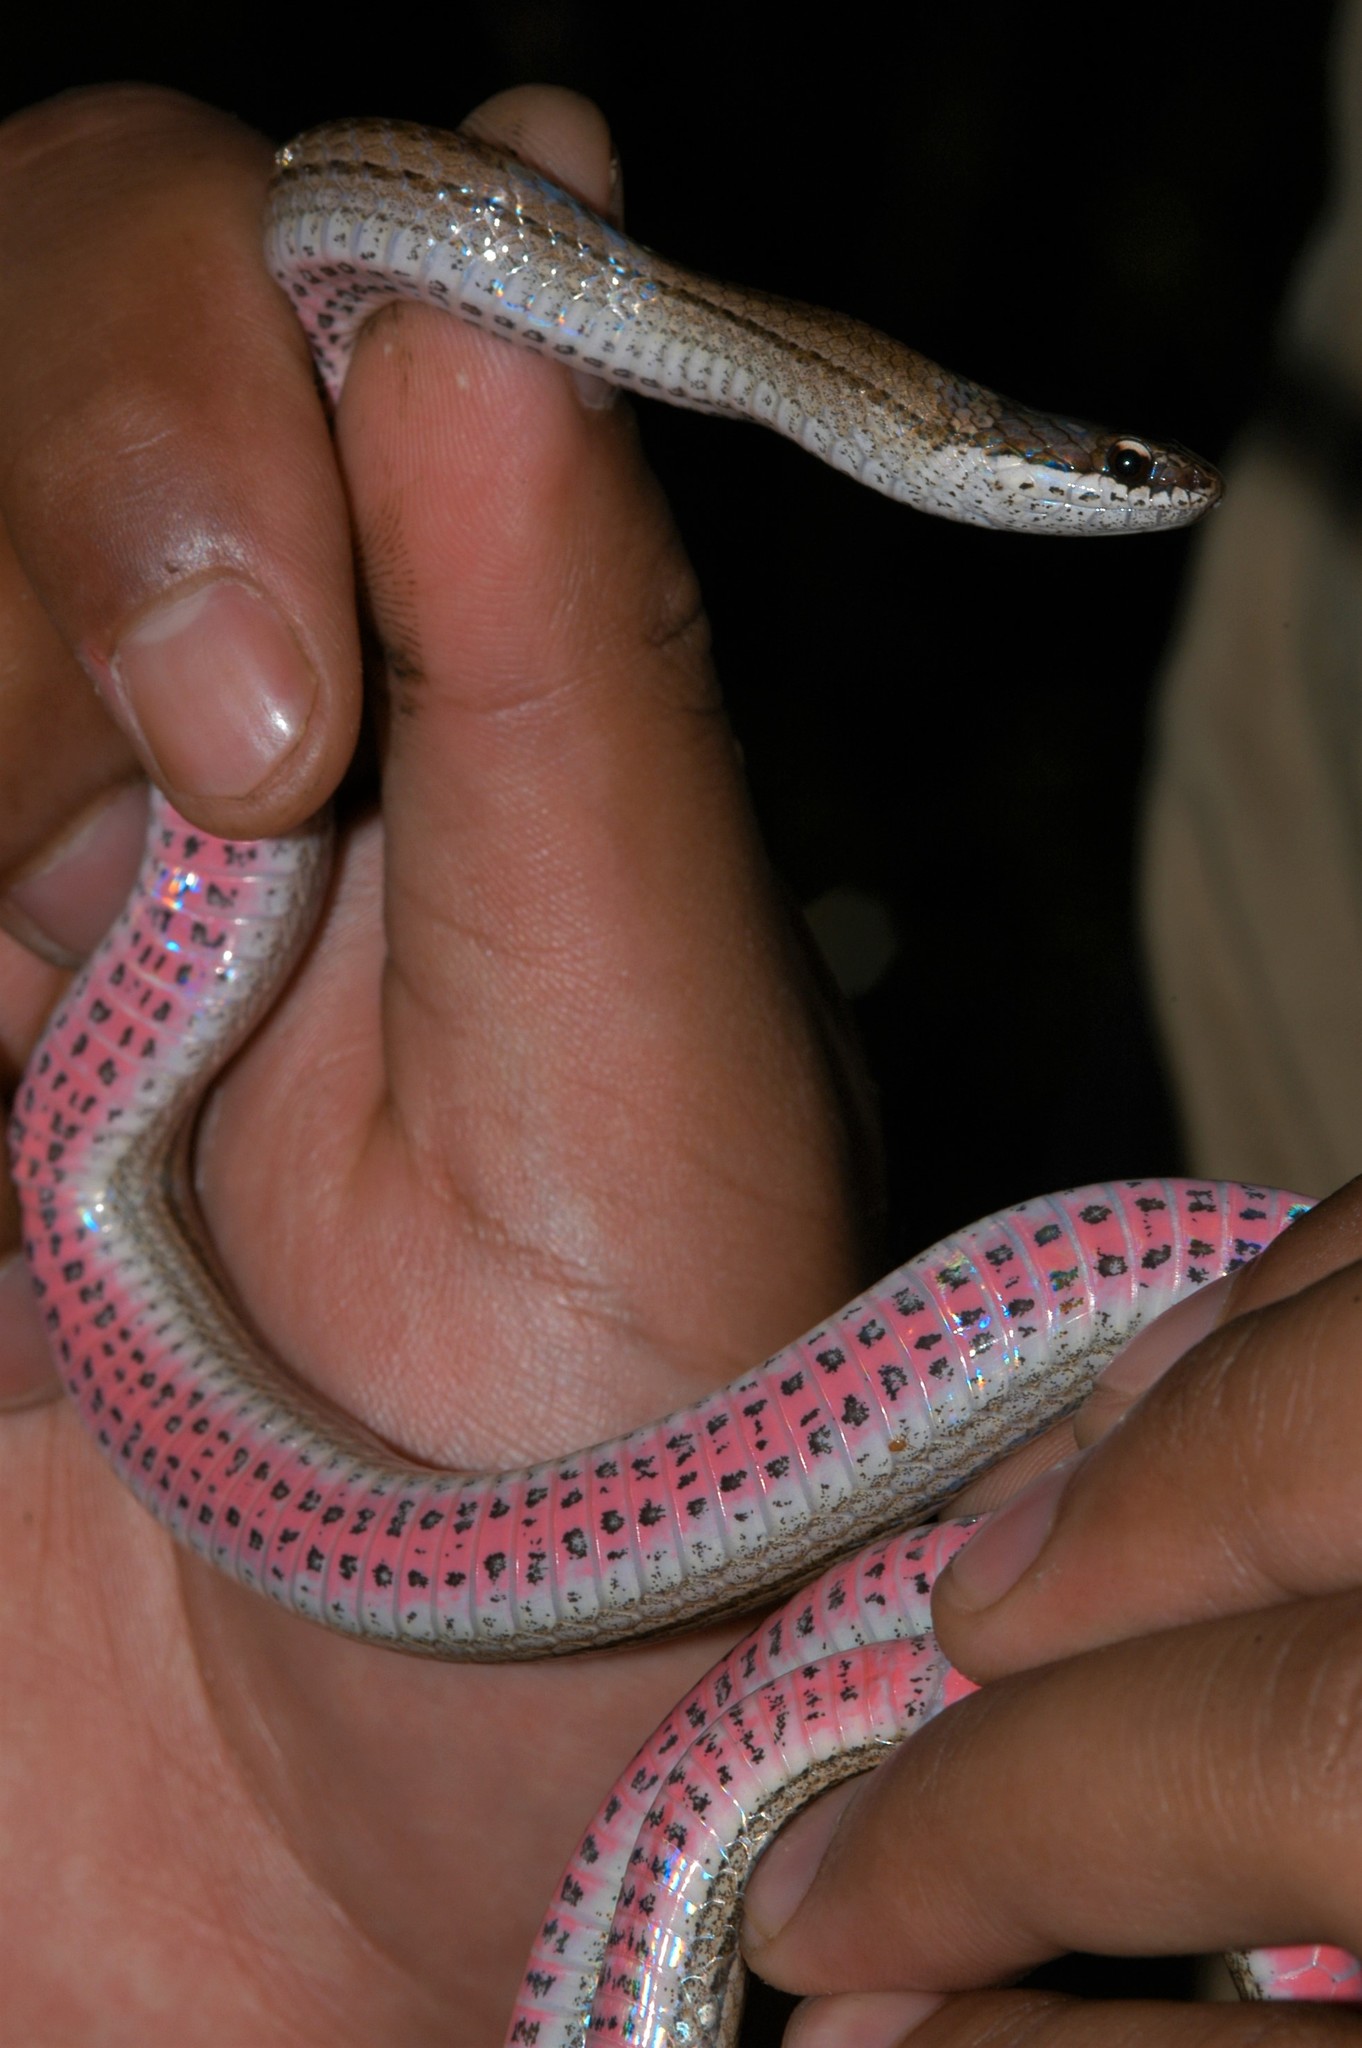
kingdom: Animalia
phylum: Chordata
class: Squamata
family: Pseudoxyrhophiidae
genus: Liophidium
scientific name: Liophidium rhodogaster
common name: Gold-collared snake
